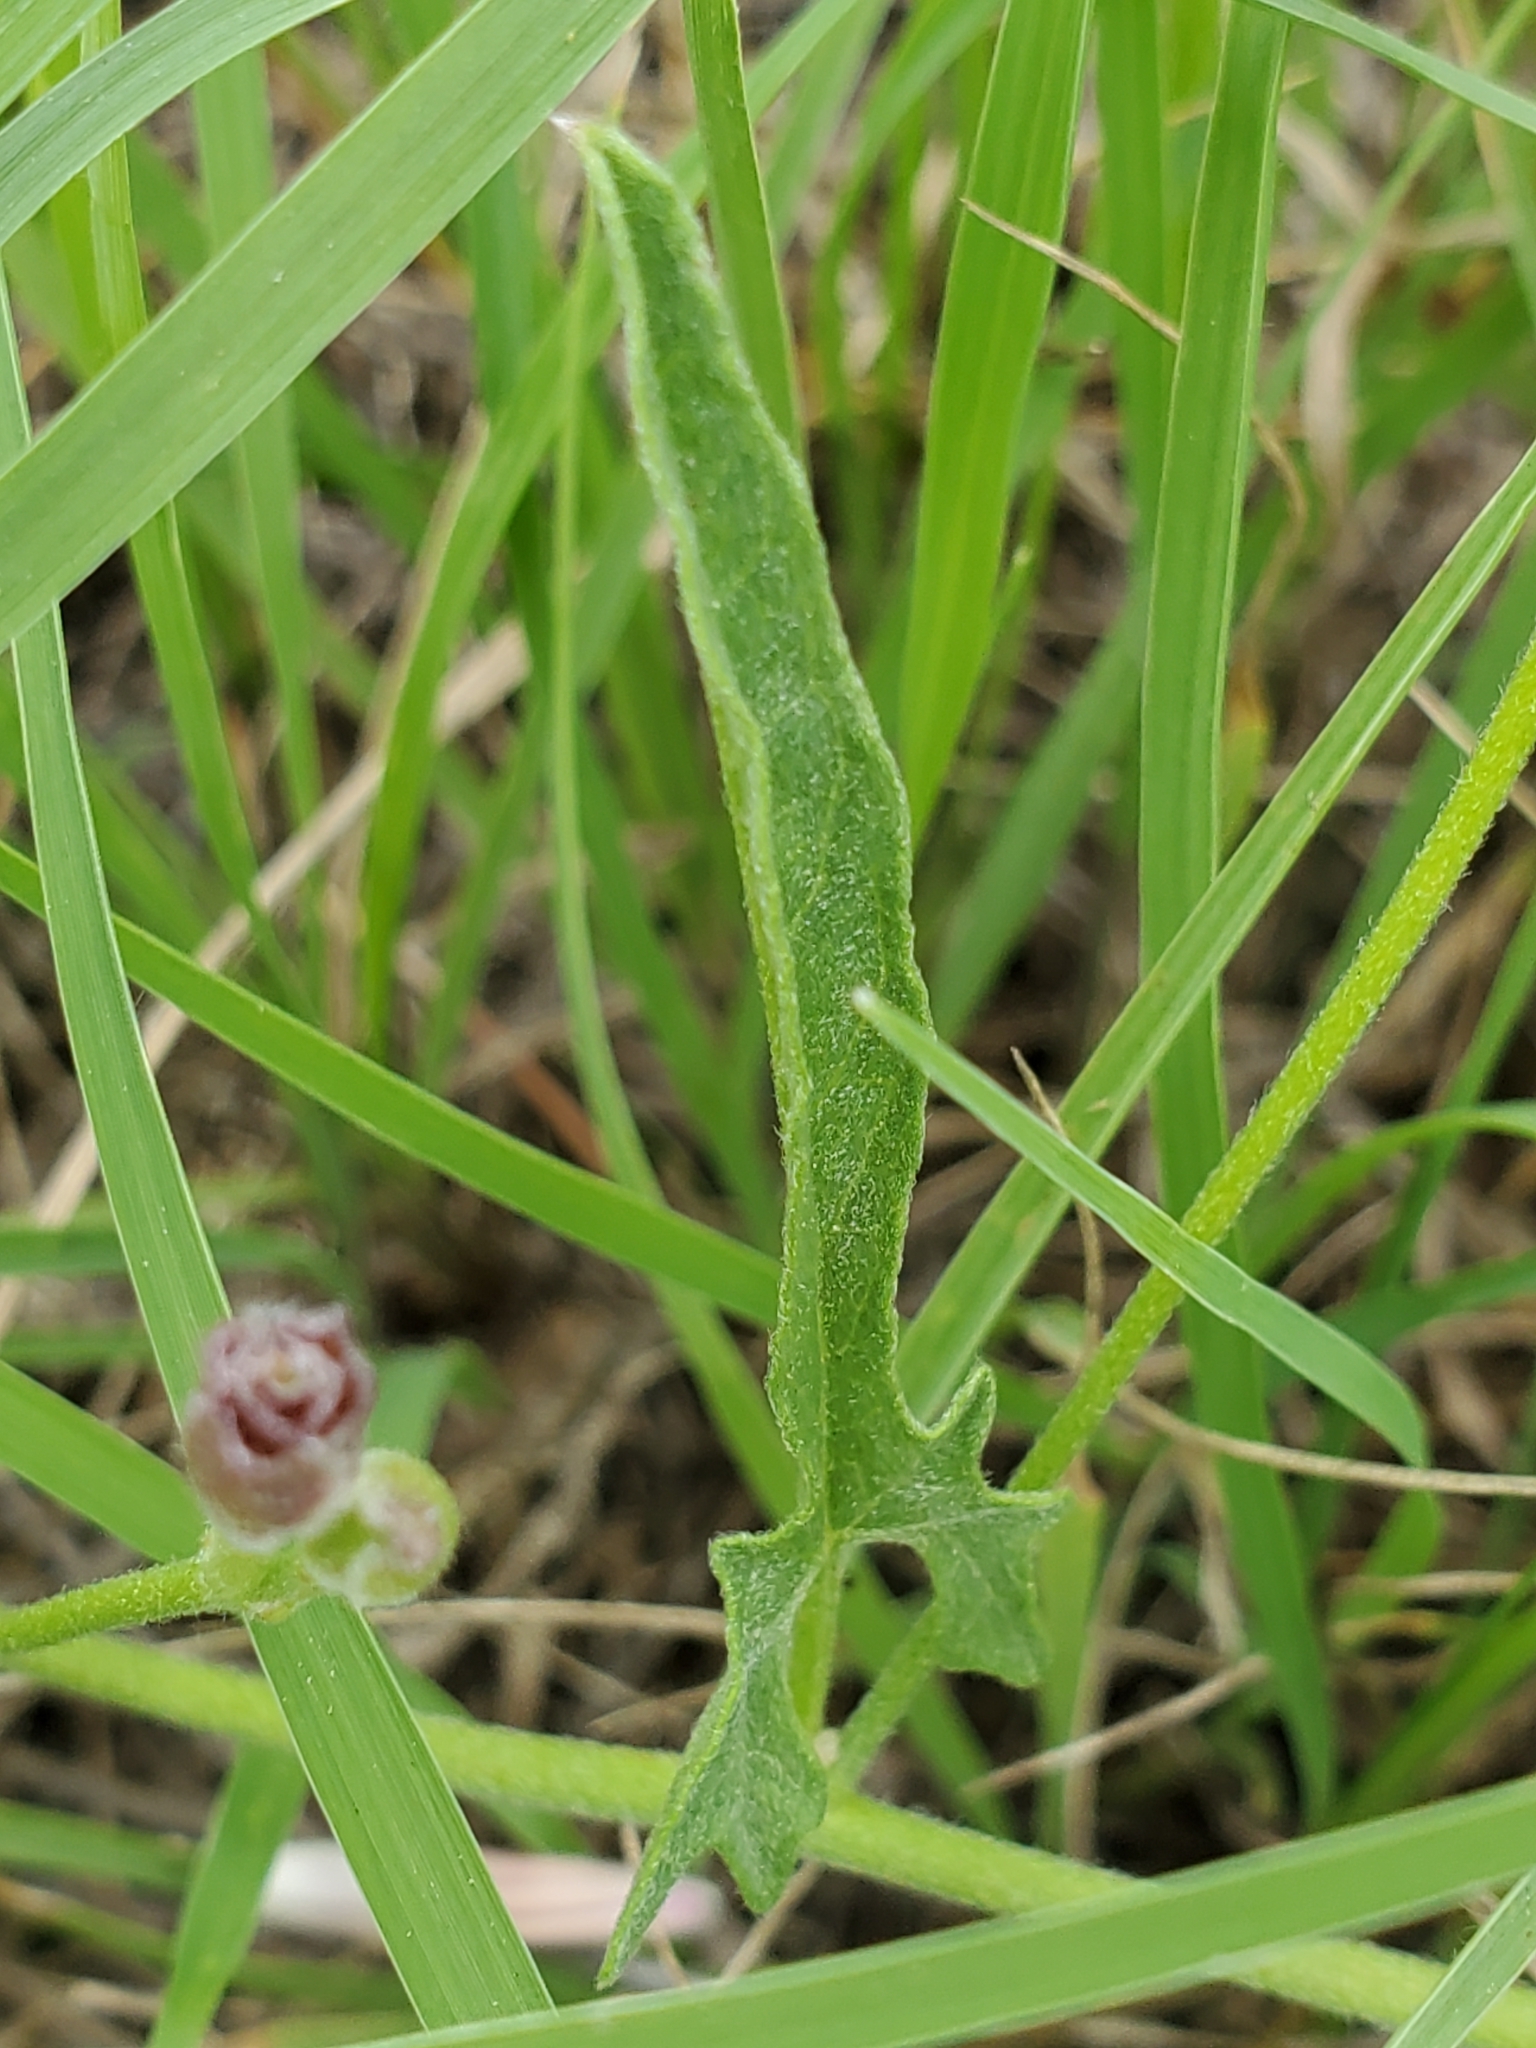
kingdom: Plantae
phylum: Tracheophyta
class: Magnoliopsida
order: Solanales
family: Convolvulaceae
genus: Convolvulus
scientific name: Convolvulus equitans
